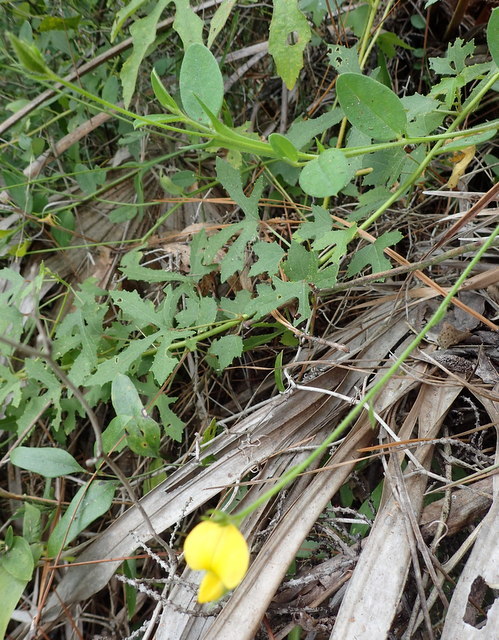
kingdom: Plantae
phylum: Tracheophyta
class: Magnoliopsida
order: Fabales
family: Fabaceae
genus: Crotalaria
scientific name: Crotalaria rotundifolia
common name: Prostrate rattlebox
